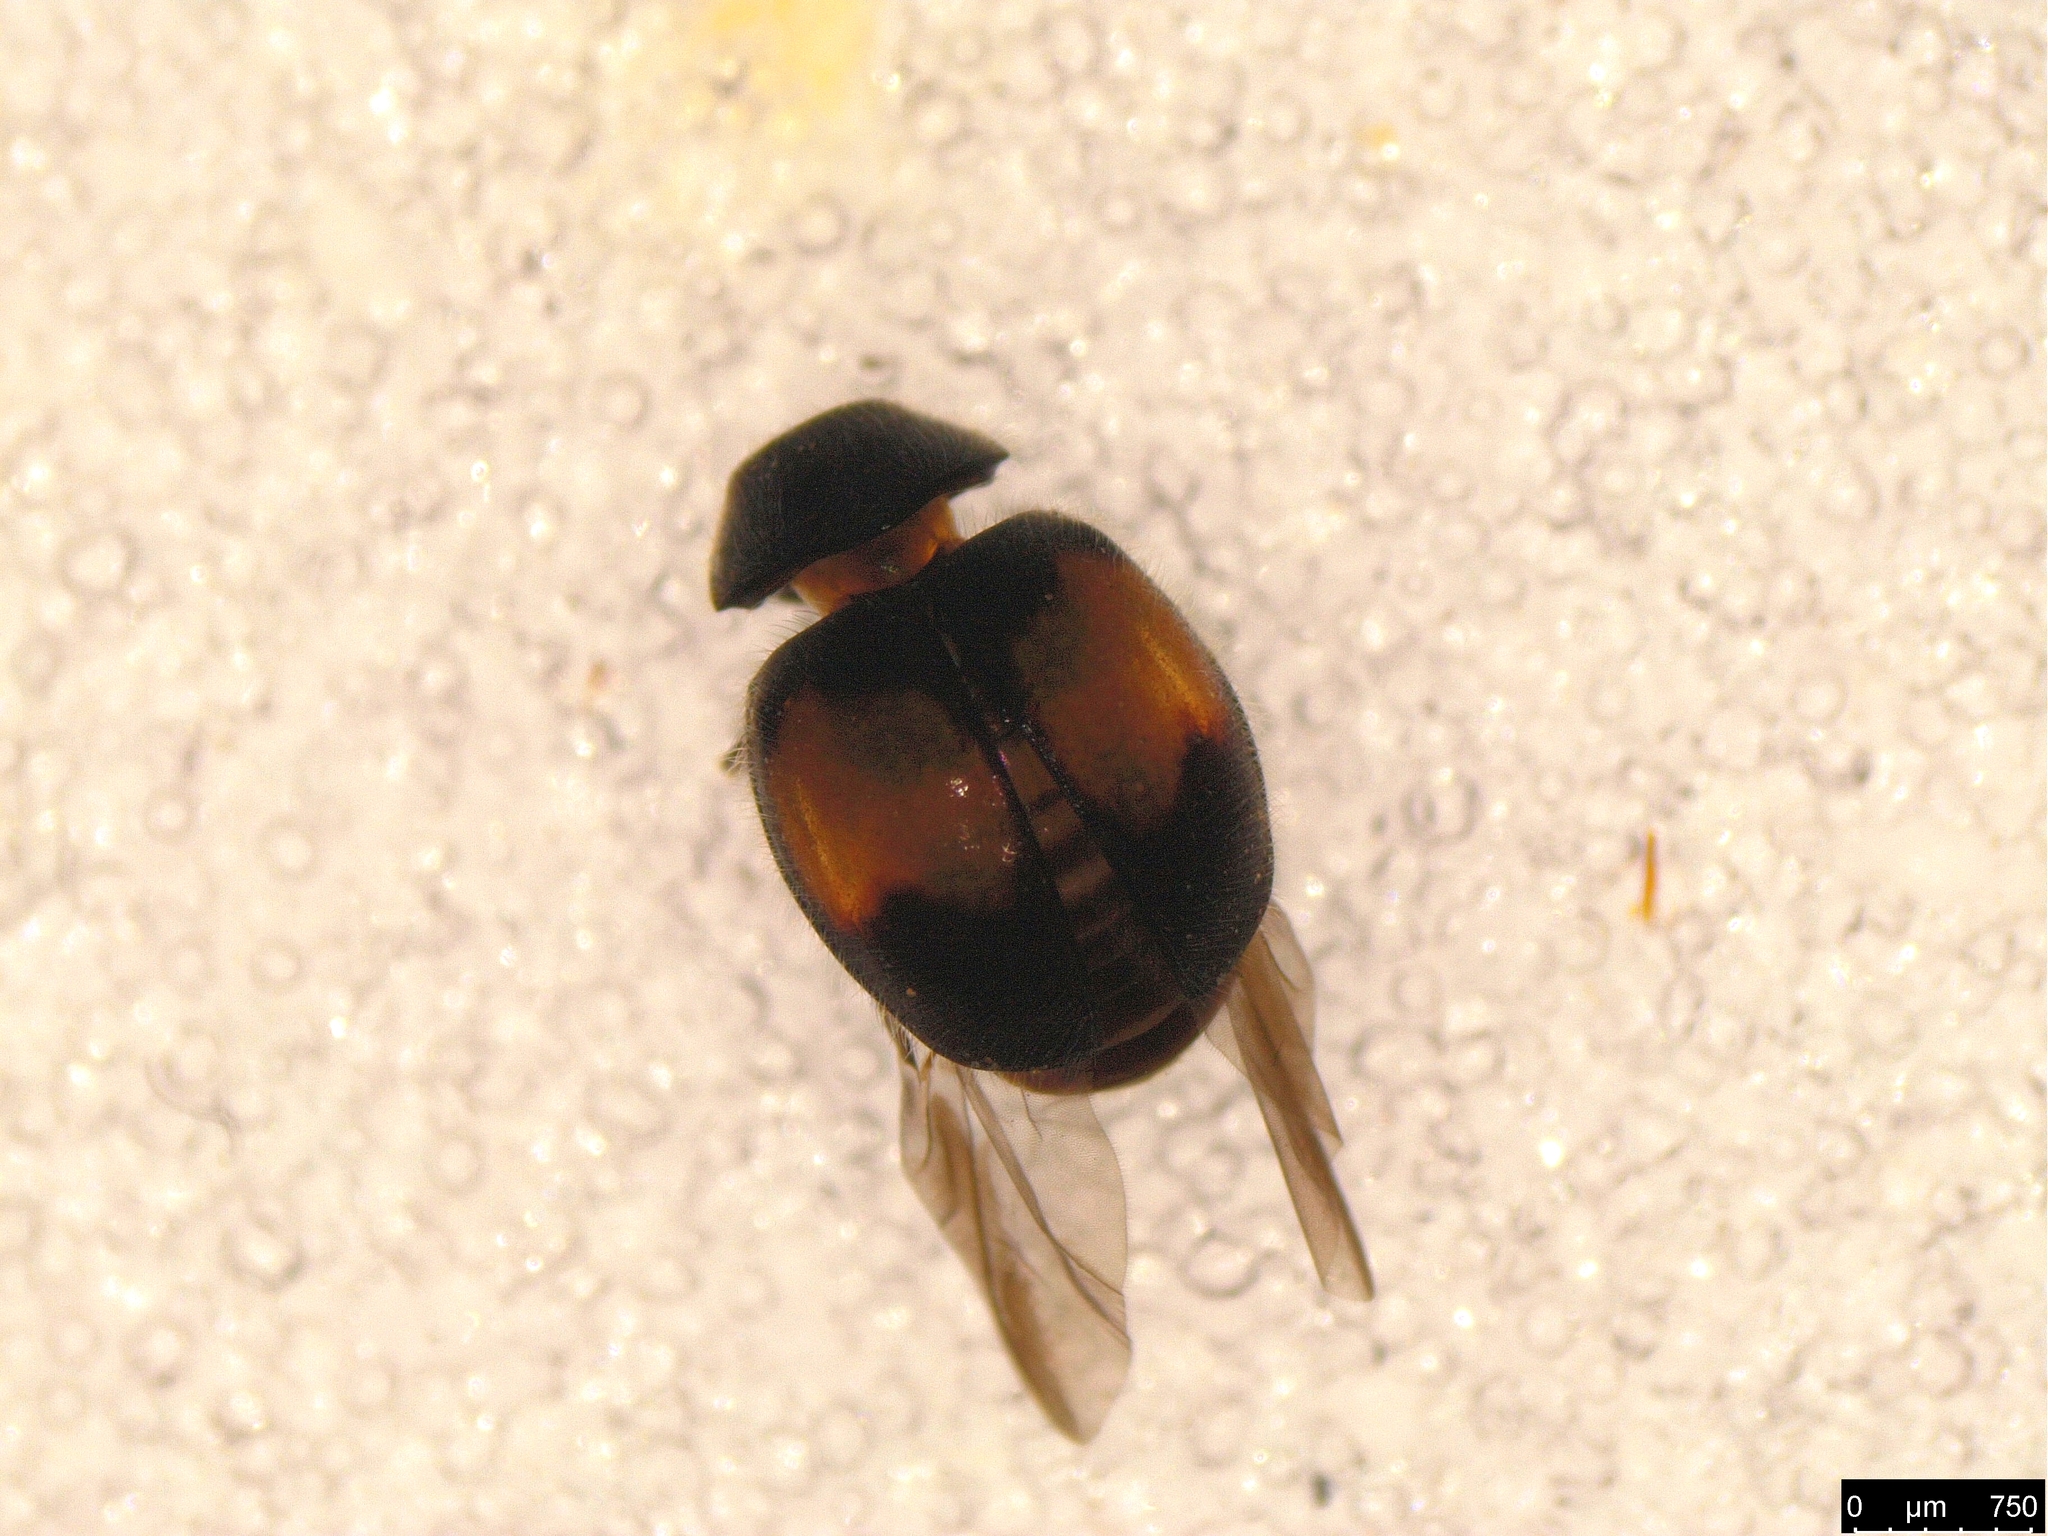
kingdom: Animalia
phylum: Arthropoda
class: Insecta
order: Coleoptera
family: Coccinellidae
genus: Scymnus
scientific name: Scymnus notescens
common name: Minute two-spotted ladybird beetle
